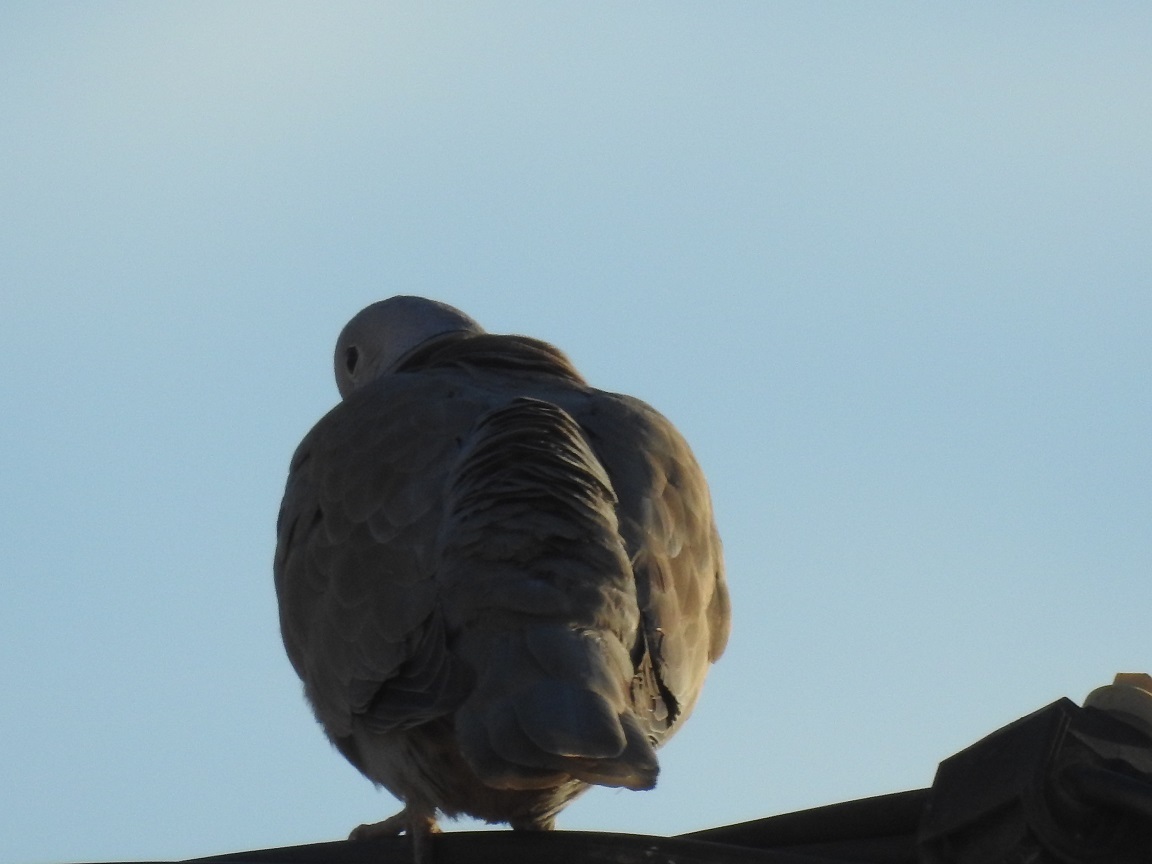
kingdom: Animalia
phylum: Chordata
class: Aves
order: Columbiformes
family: Columbidae
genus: Streptopelia
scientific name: Streptopelia decaocto
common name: Eurasian collared dove
